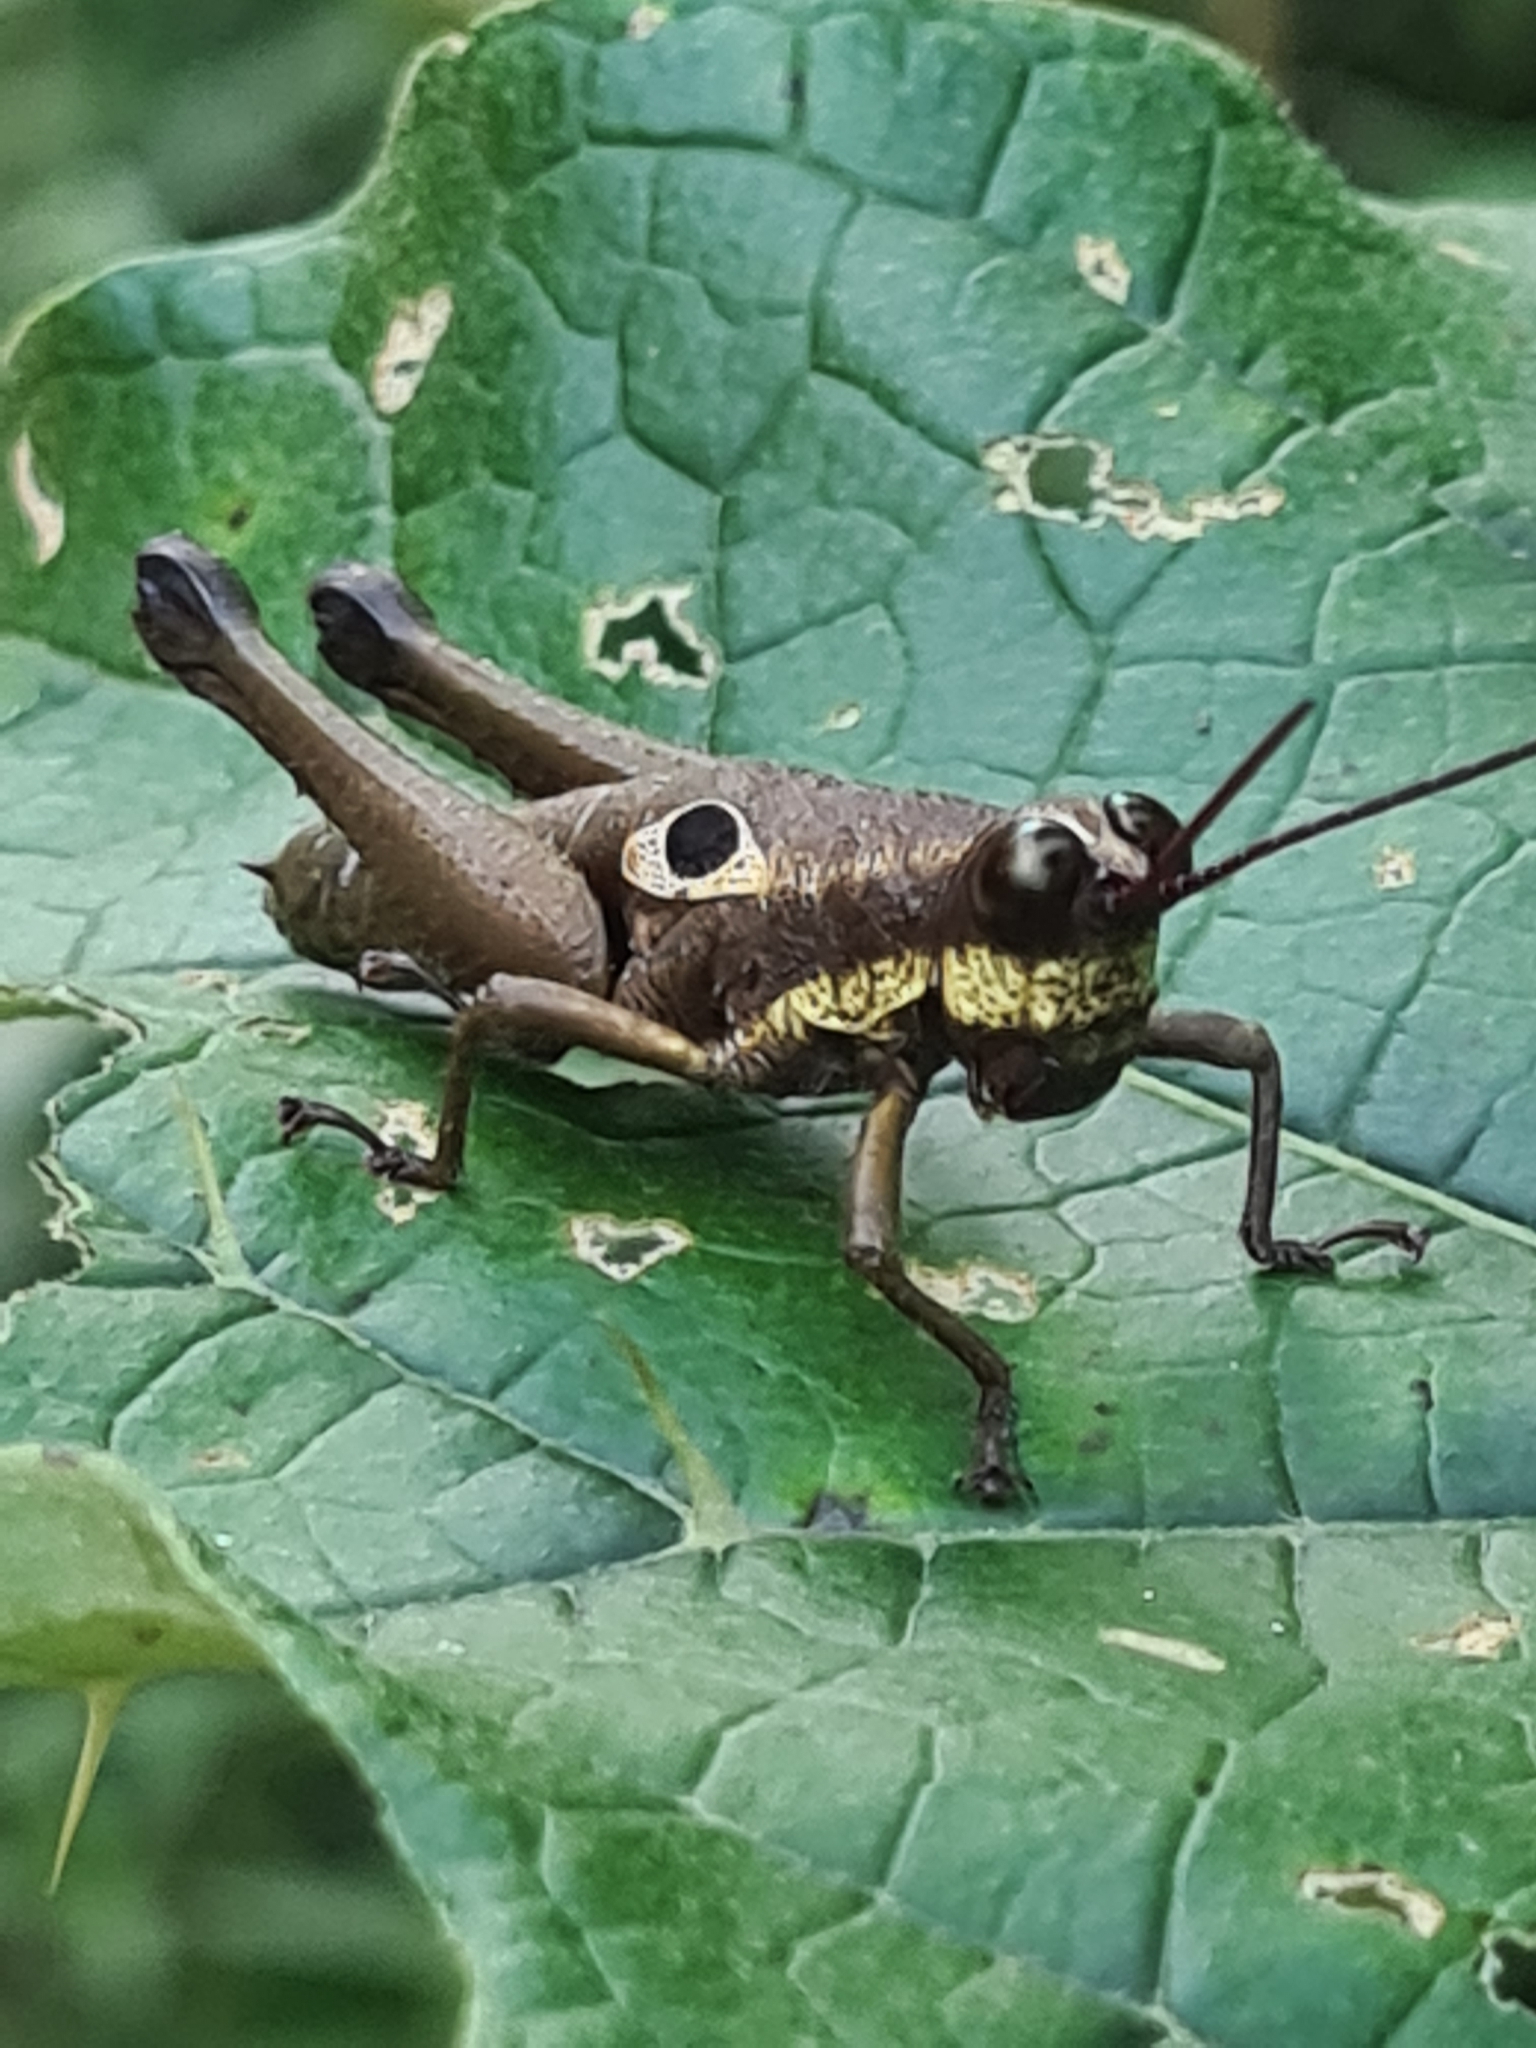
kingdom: Animalia
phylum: Arthropoda
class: Insecta
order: Orthoptera
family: Acrididae
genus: Ommatolampis
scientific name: Ommatolampis perspicillata
